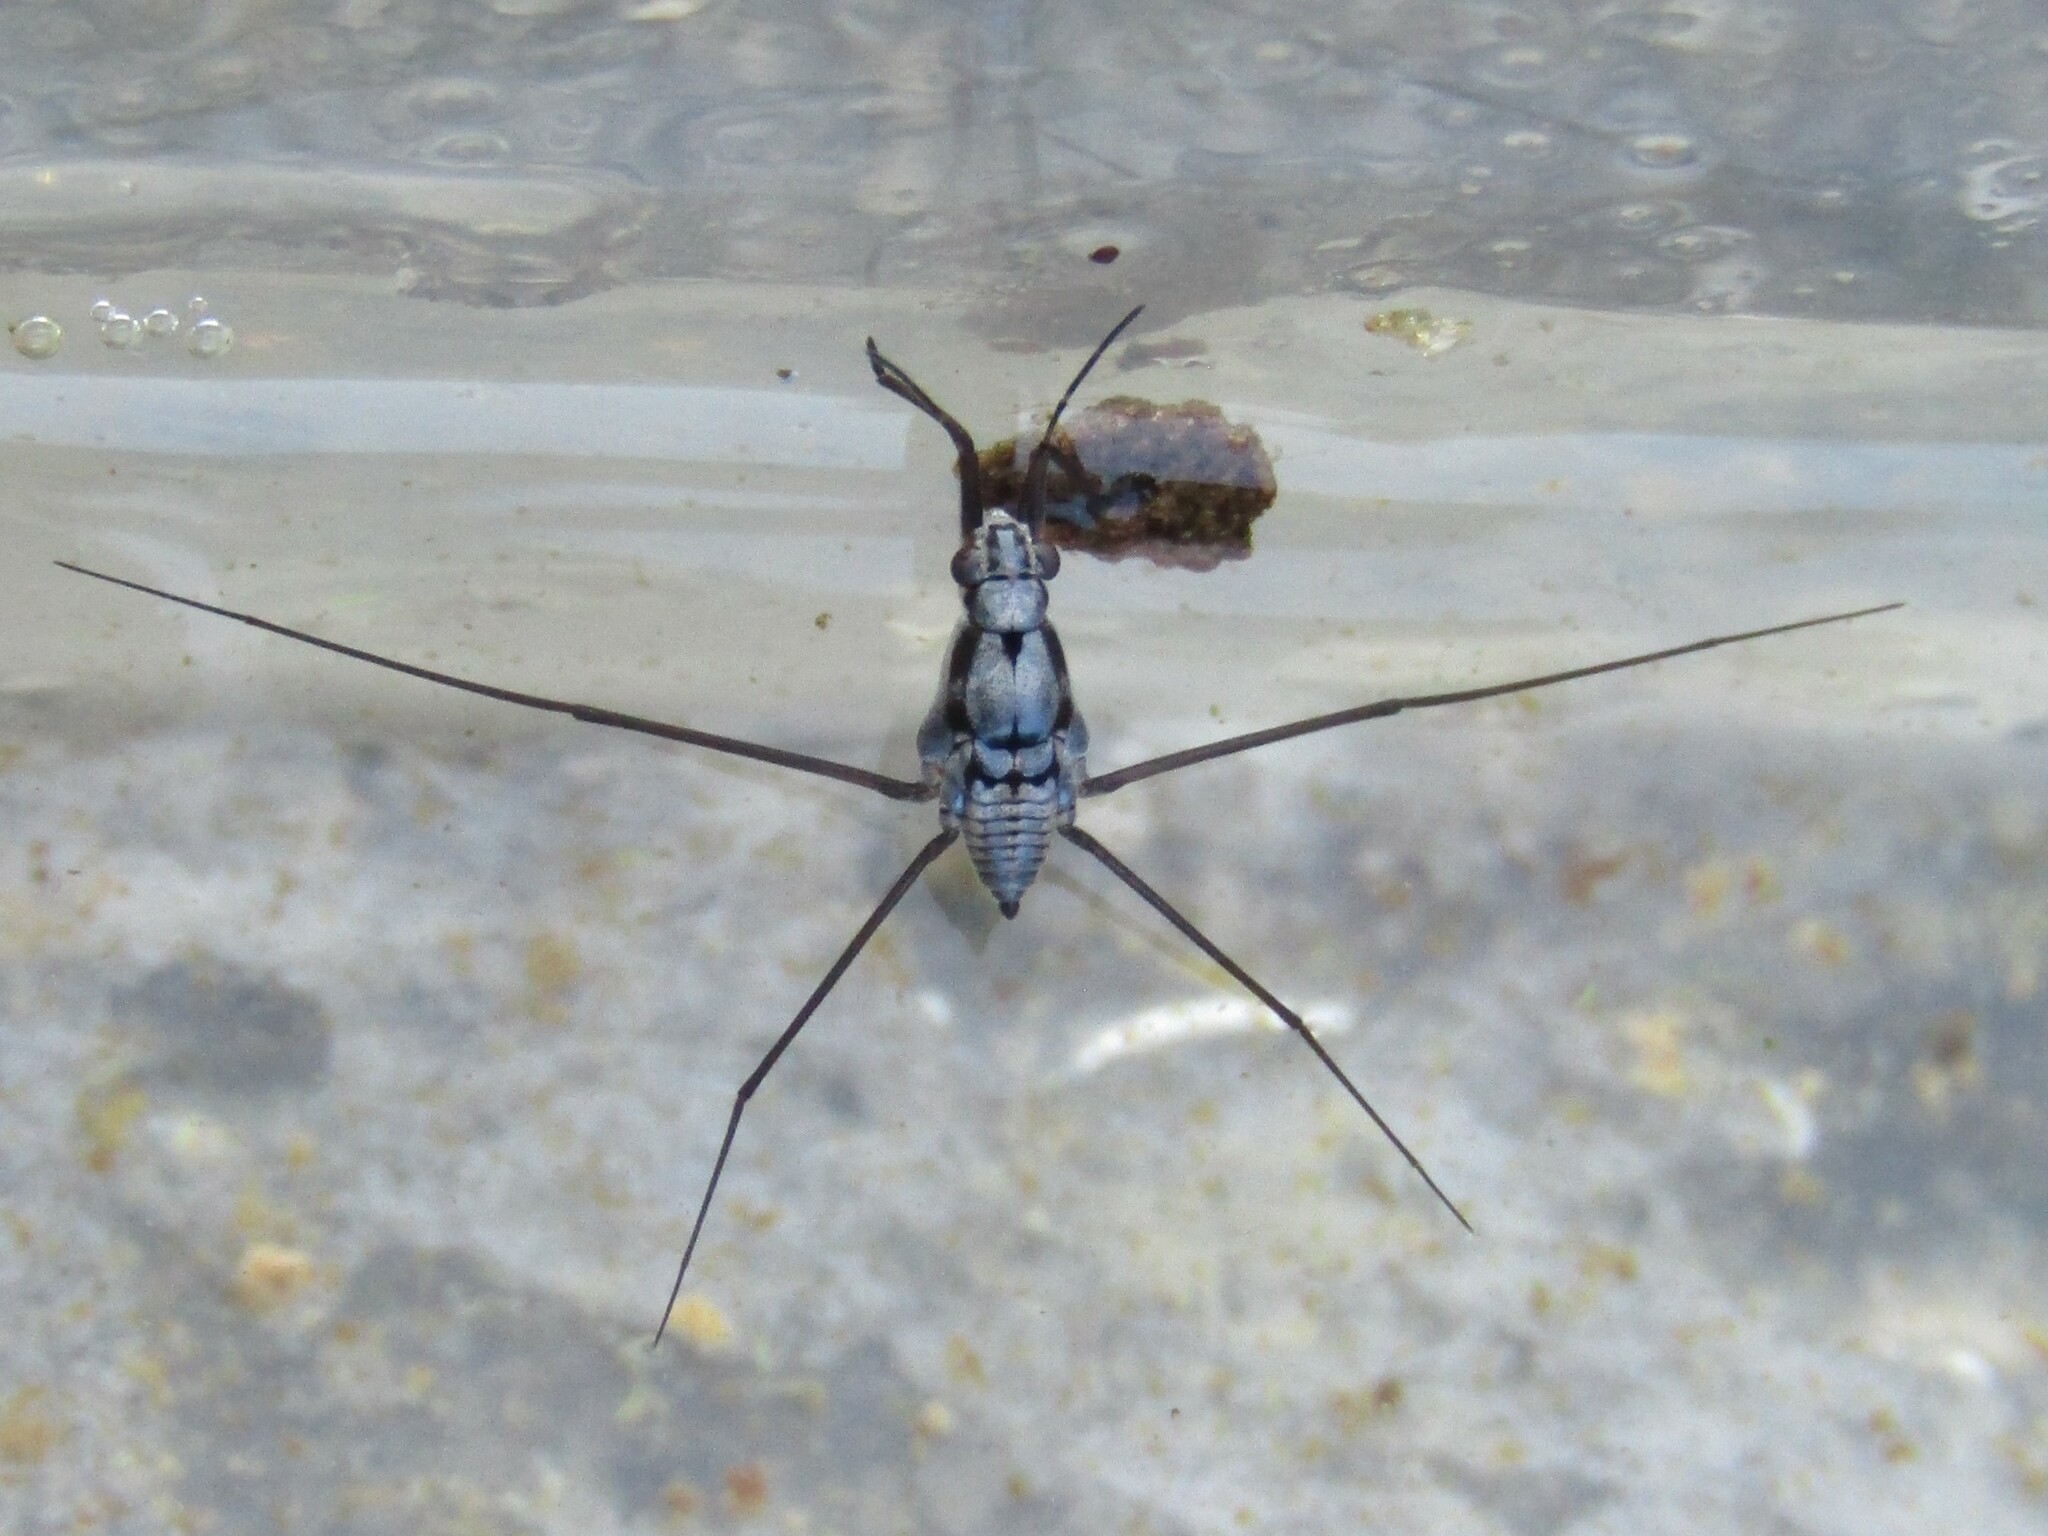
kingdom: Animalia
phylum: Arthropoda
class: Insecta
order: Hemiptera
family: Gerridae
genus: Neogerris
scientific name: Neogerris hesione
